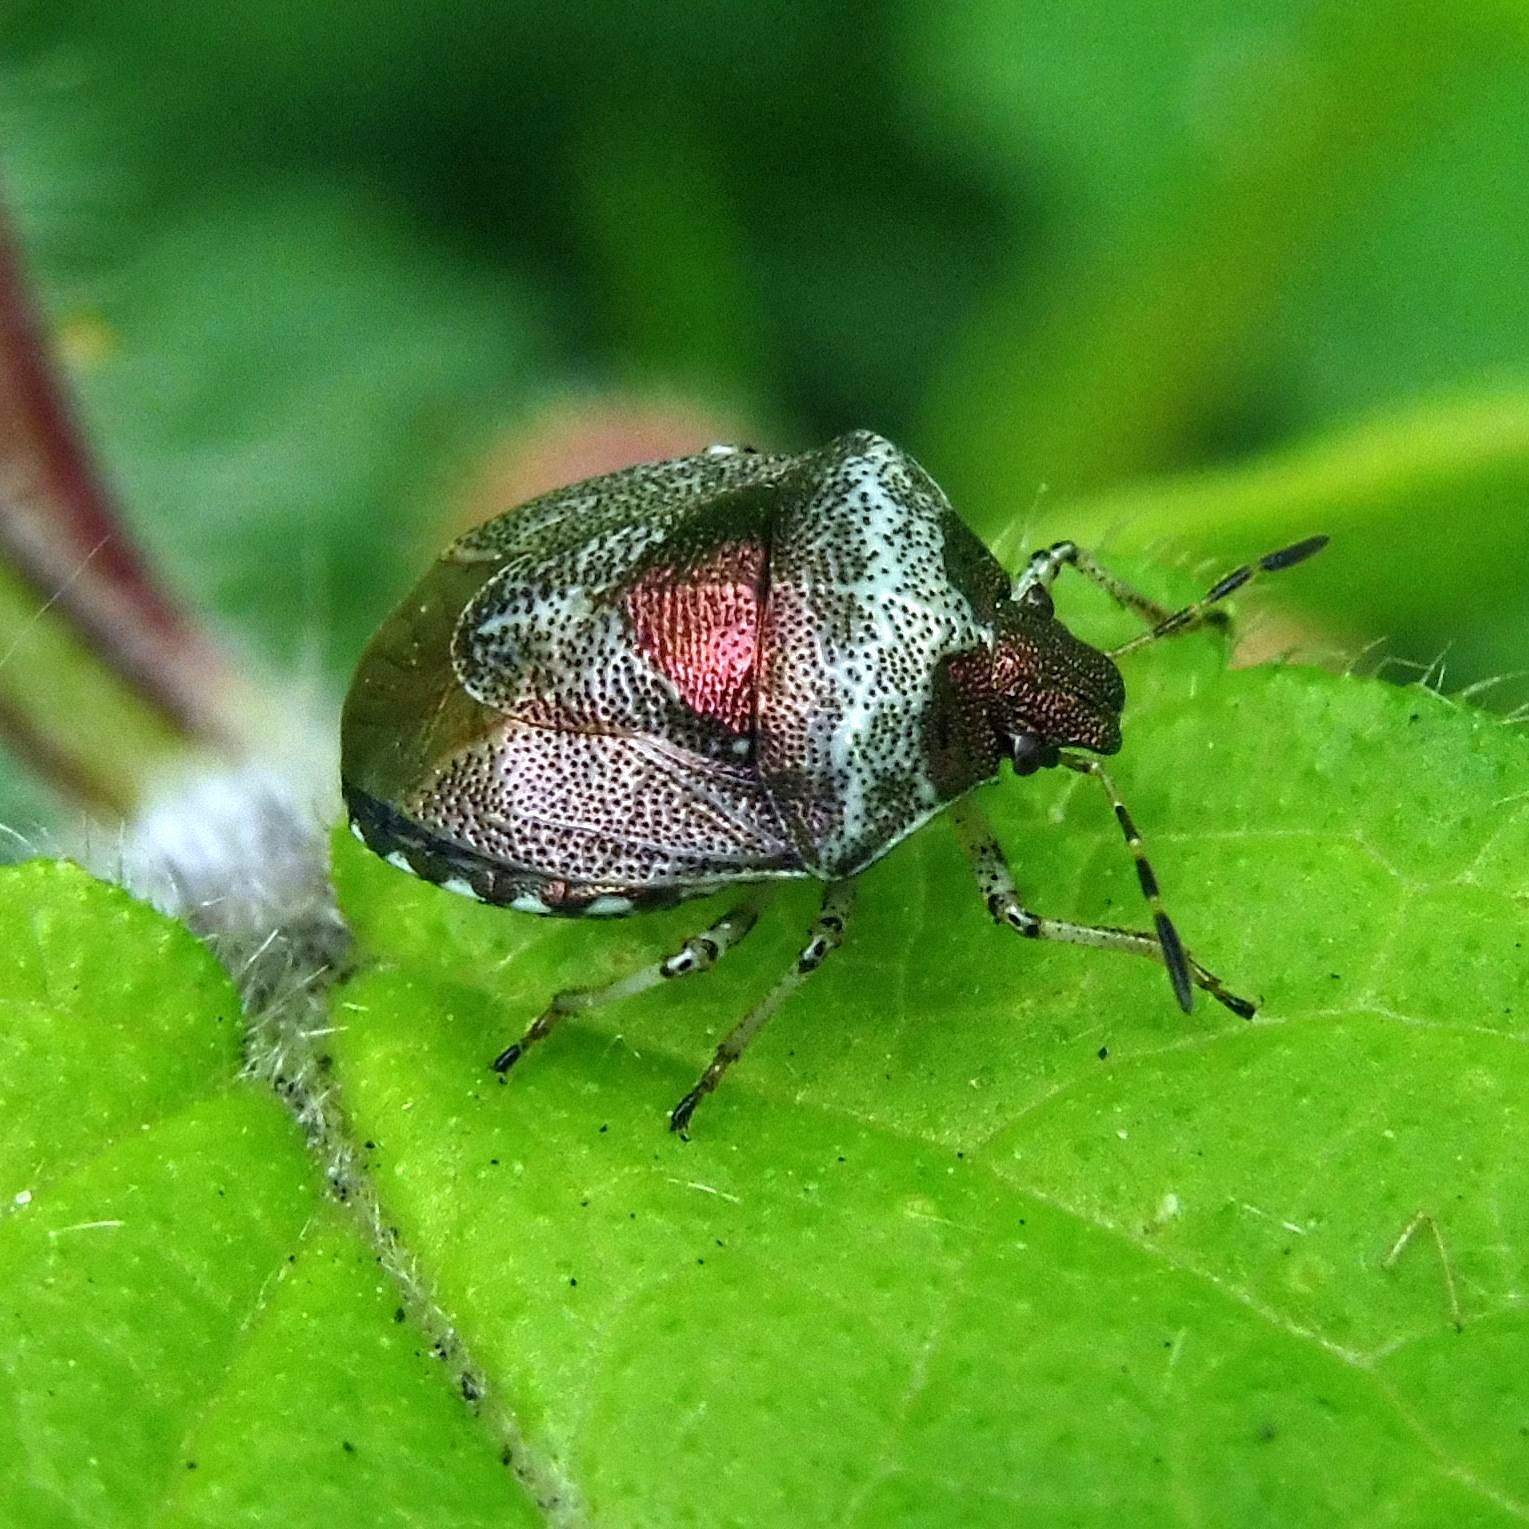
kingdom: Animalia
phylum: Arthropoda
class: Insecta
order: Hemiptera
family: Pentatomidae
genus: Eysarcoris
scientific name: Eysarcoris venustissimus
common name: Woundwort shieldbug
